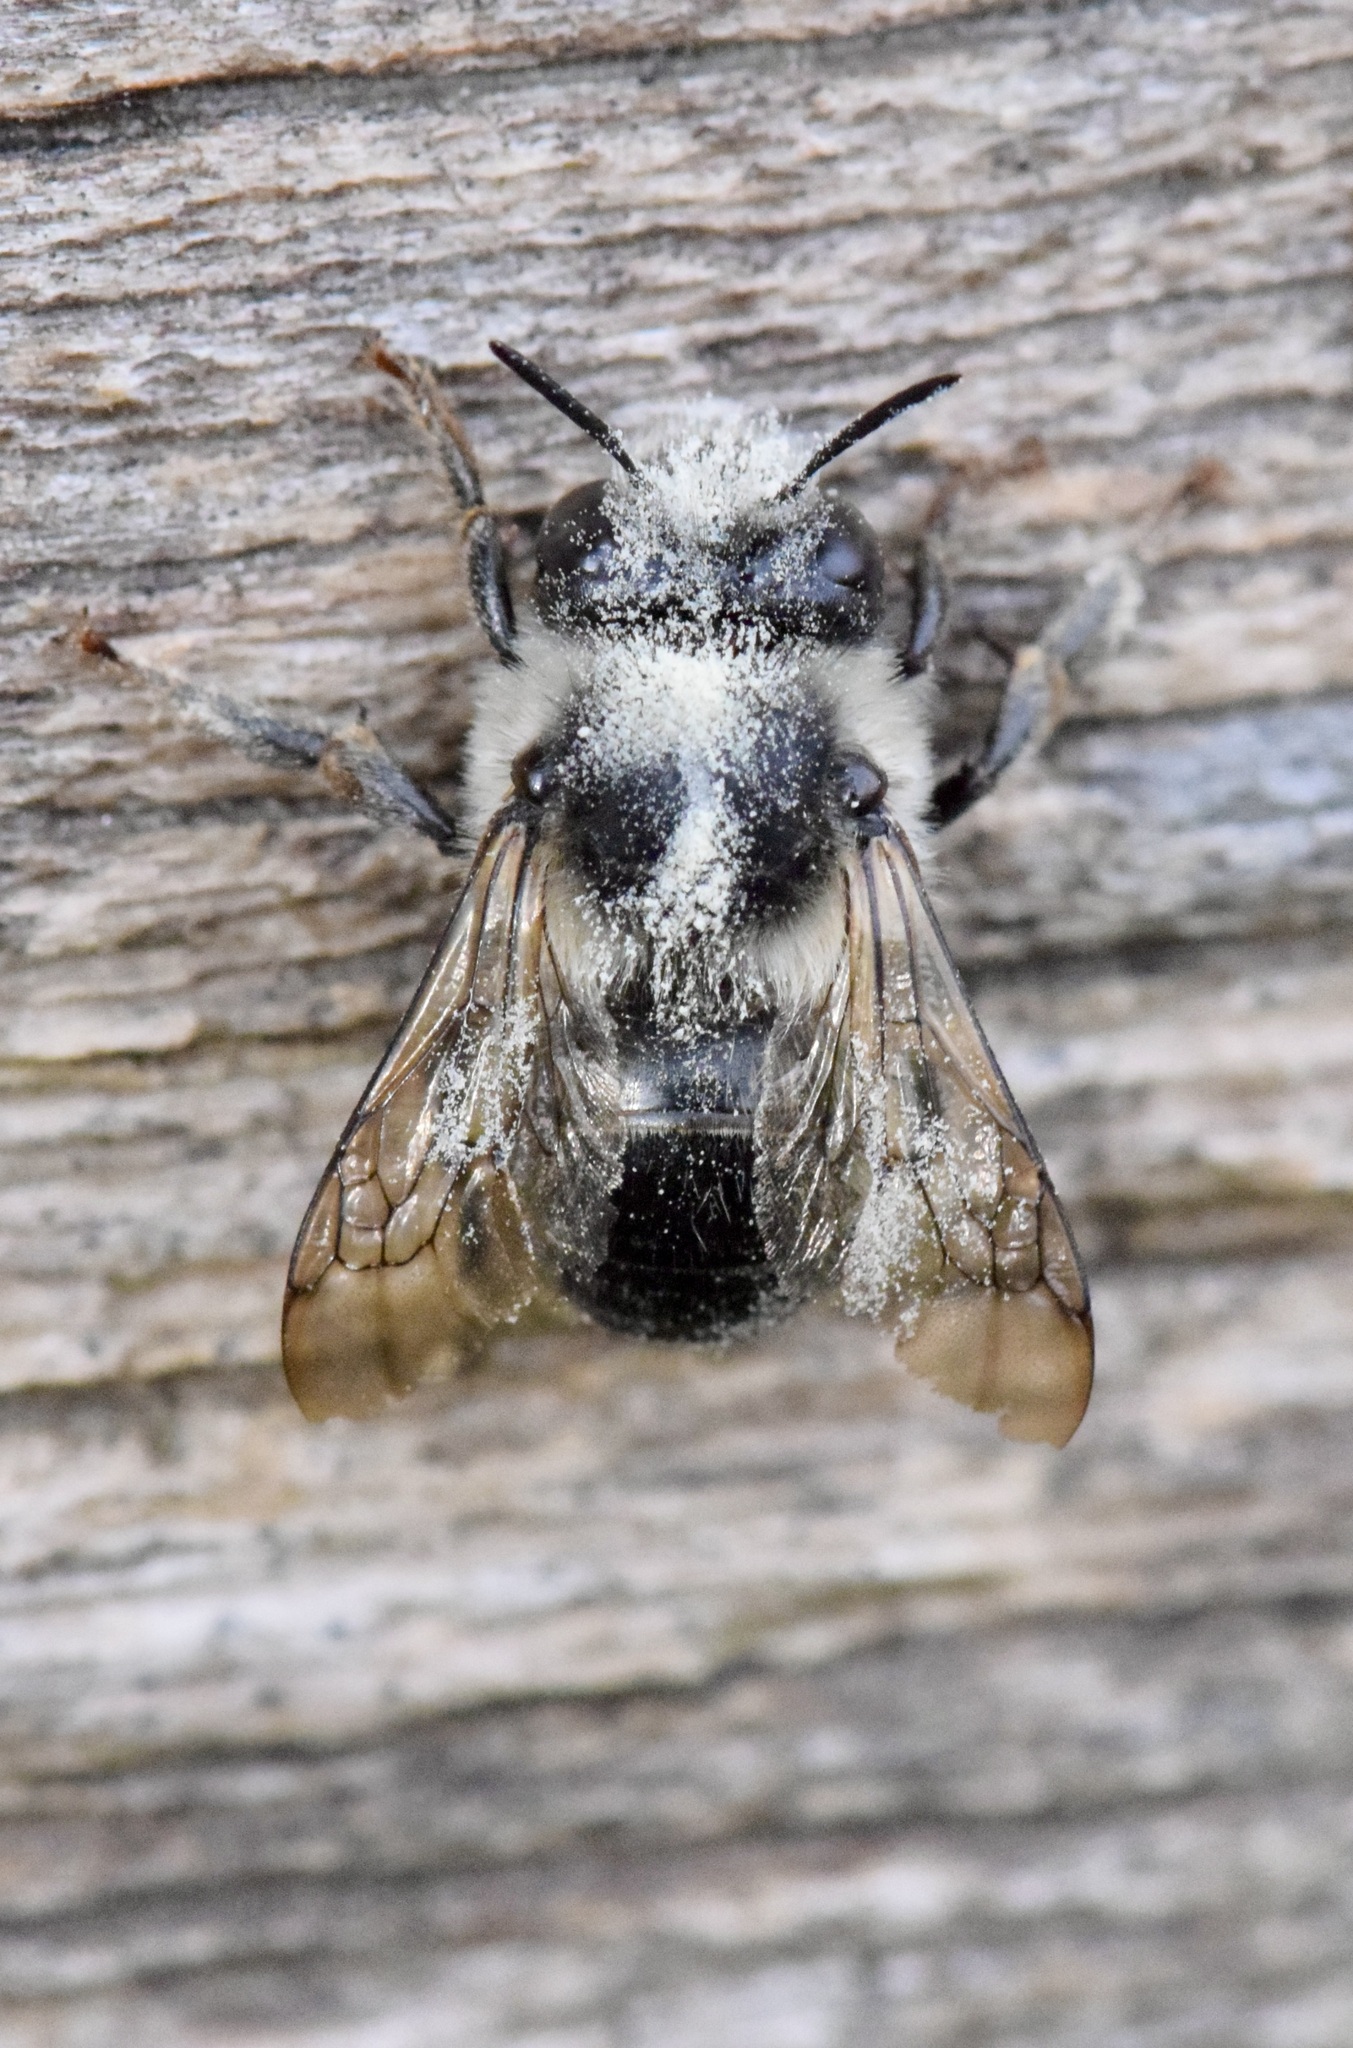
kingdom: Animalia
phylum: Arthropoda
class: Insecta
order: Hymenoptera
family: Apidae
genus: Anthophora
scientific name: Anthophora terminalis
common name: Orange-tipped wood-digger bee
